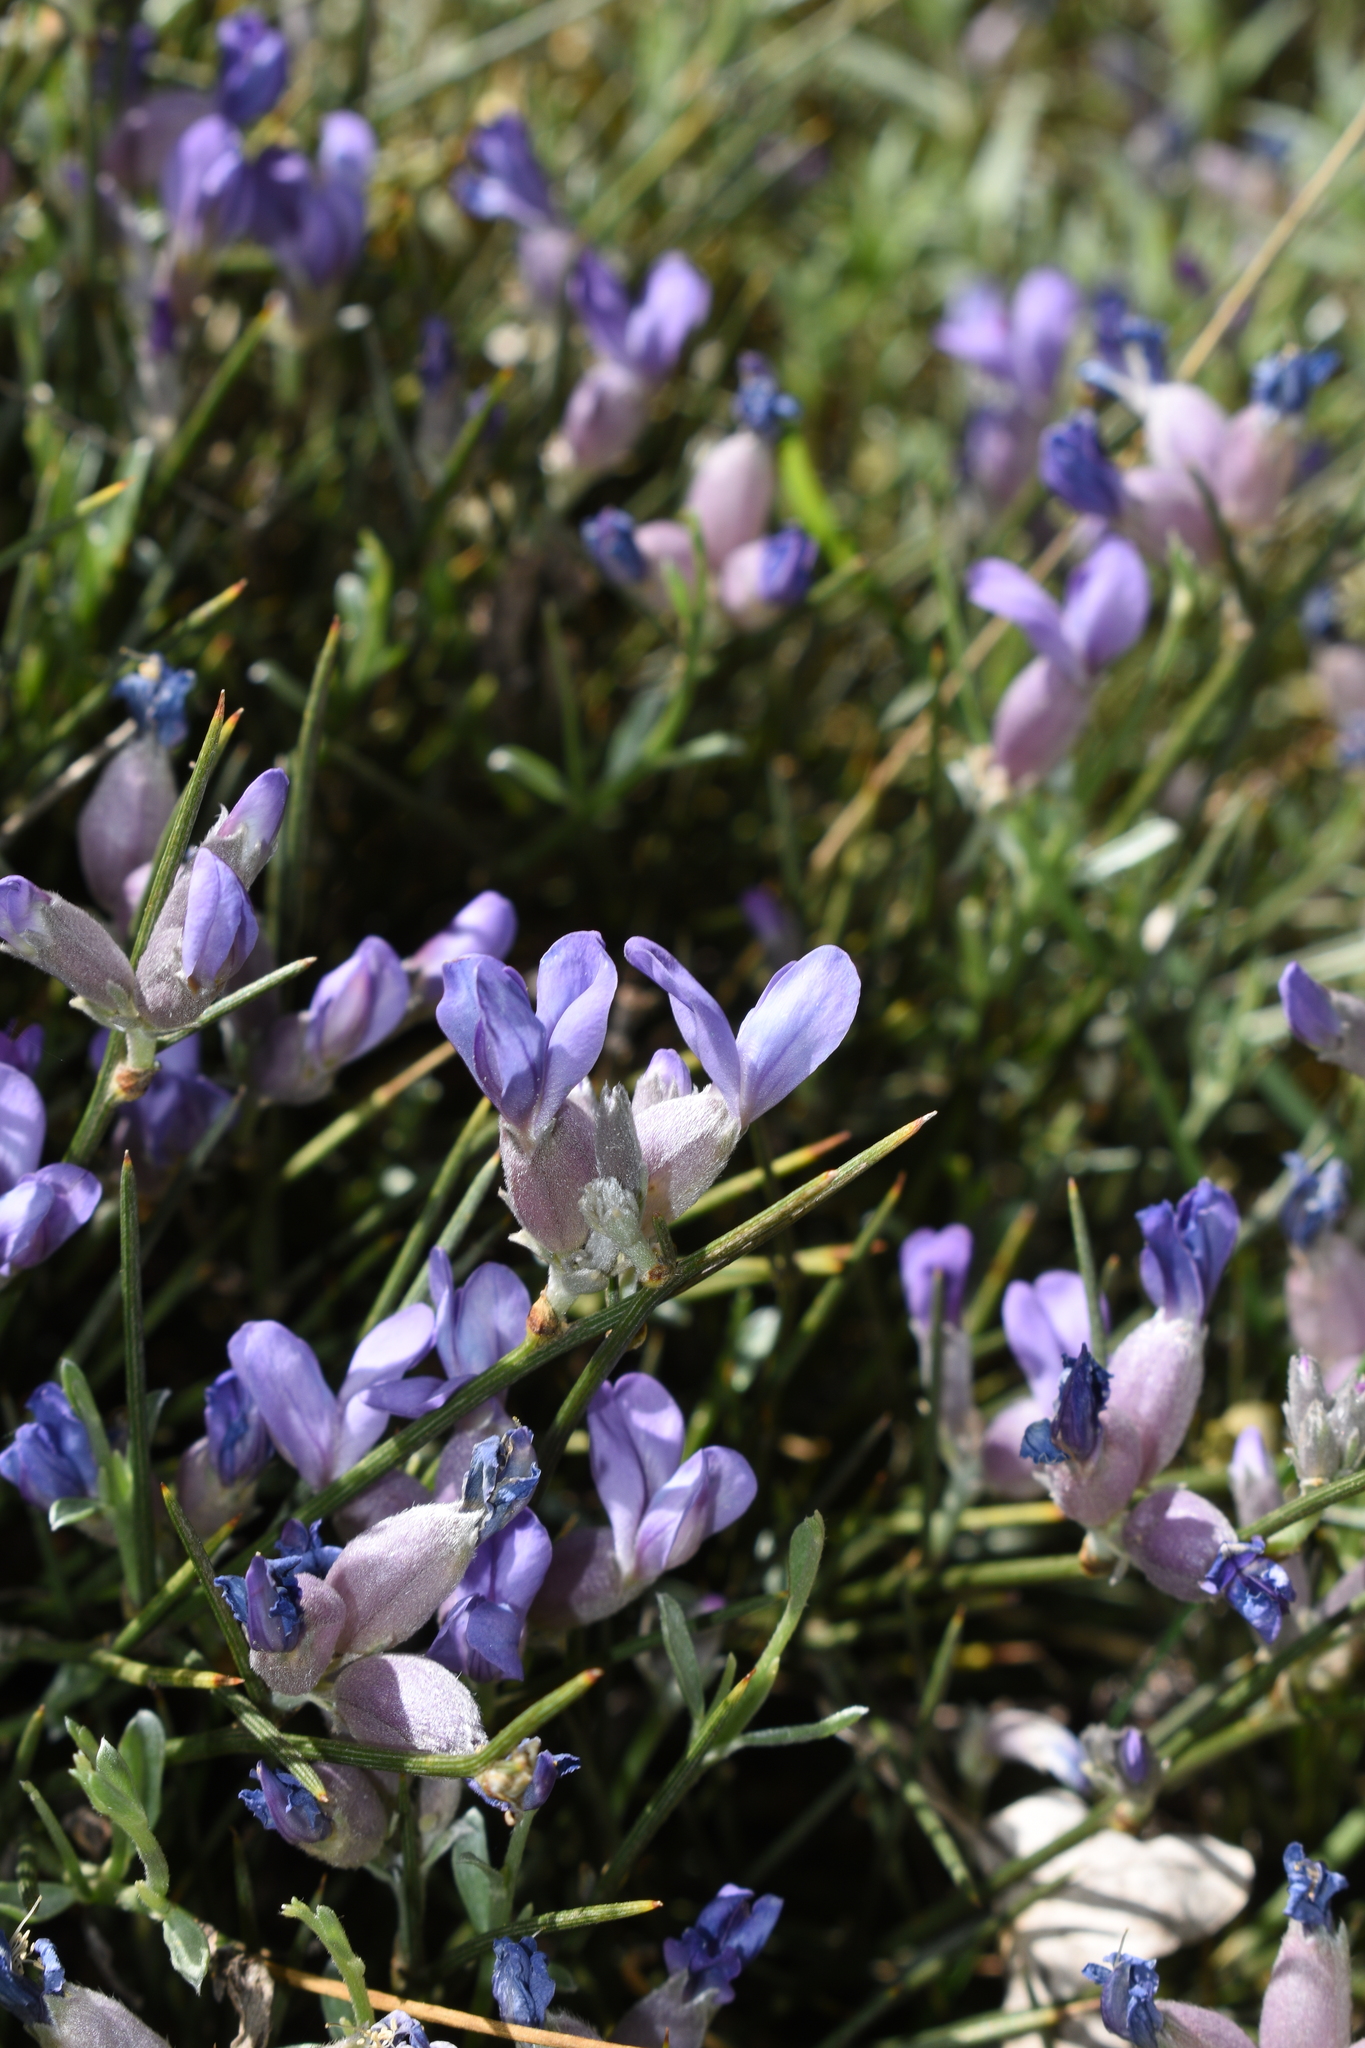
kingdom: Plantae
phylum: Tracheophyta
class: Magnoliopsida
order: Fabales
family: Fabaceae
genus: Erinacea
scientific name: Erinacea anthyllis
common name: Hedgehog-broom
